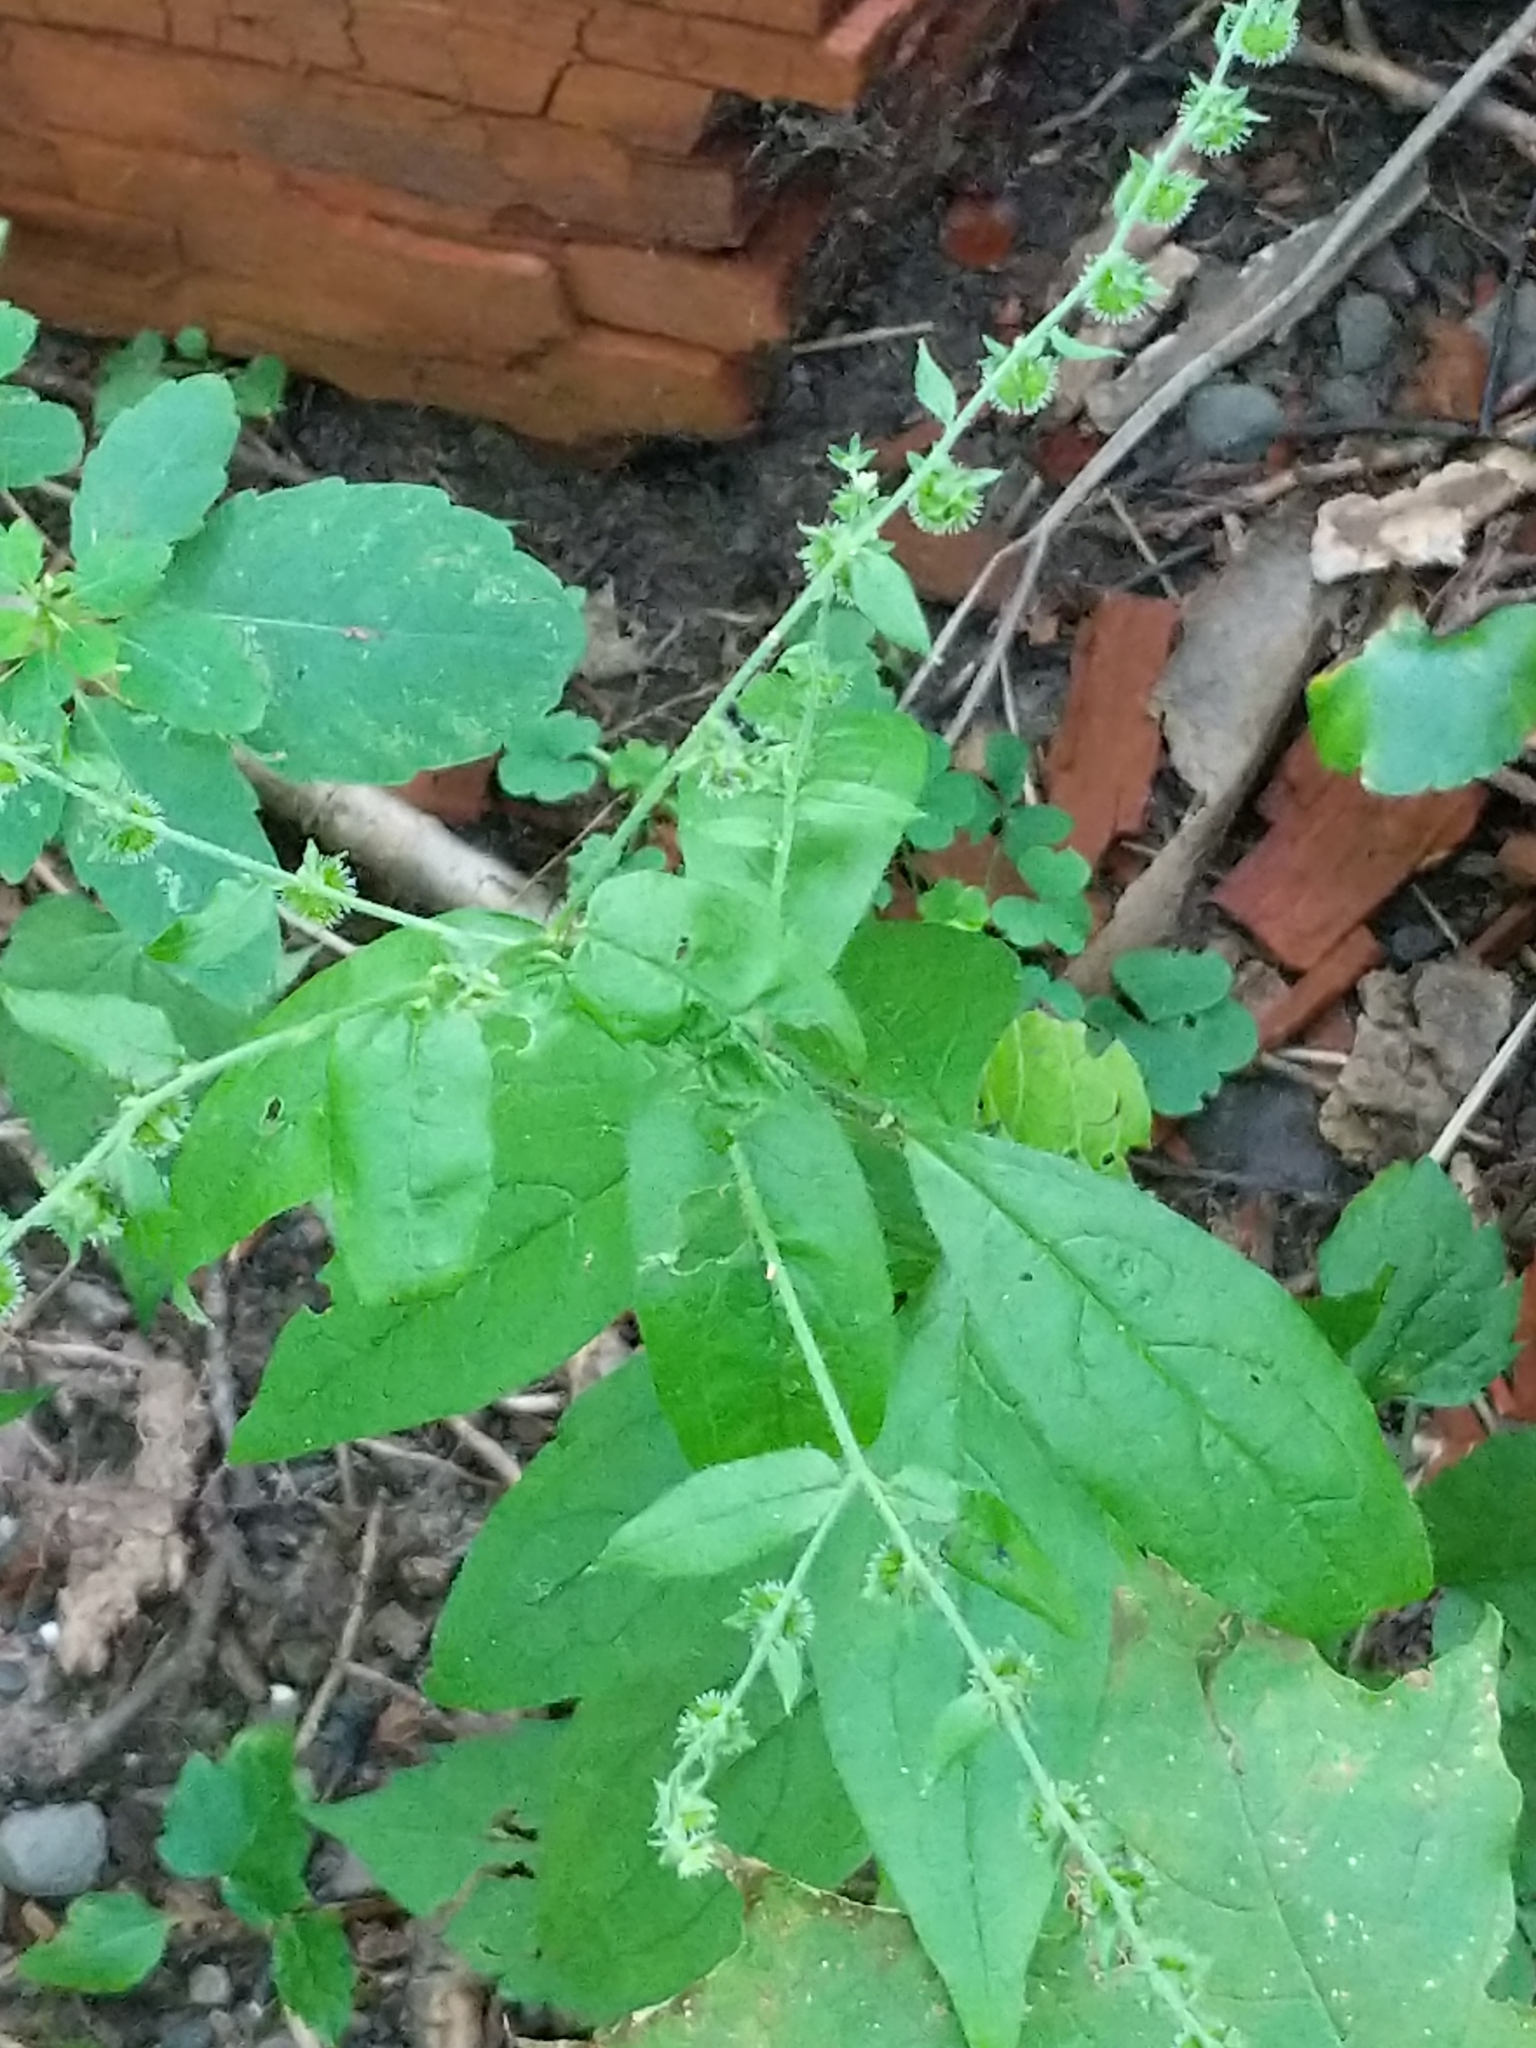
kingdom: Plantae
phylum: Tracheophyta
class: Magnoliopsida
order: Boraginales
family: Boraginaceae
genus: Hackelia
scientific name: Hackelia virginiana
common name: Beggar's-lice
